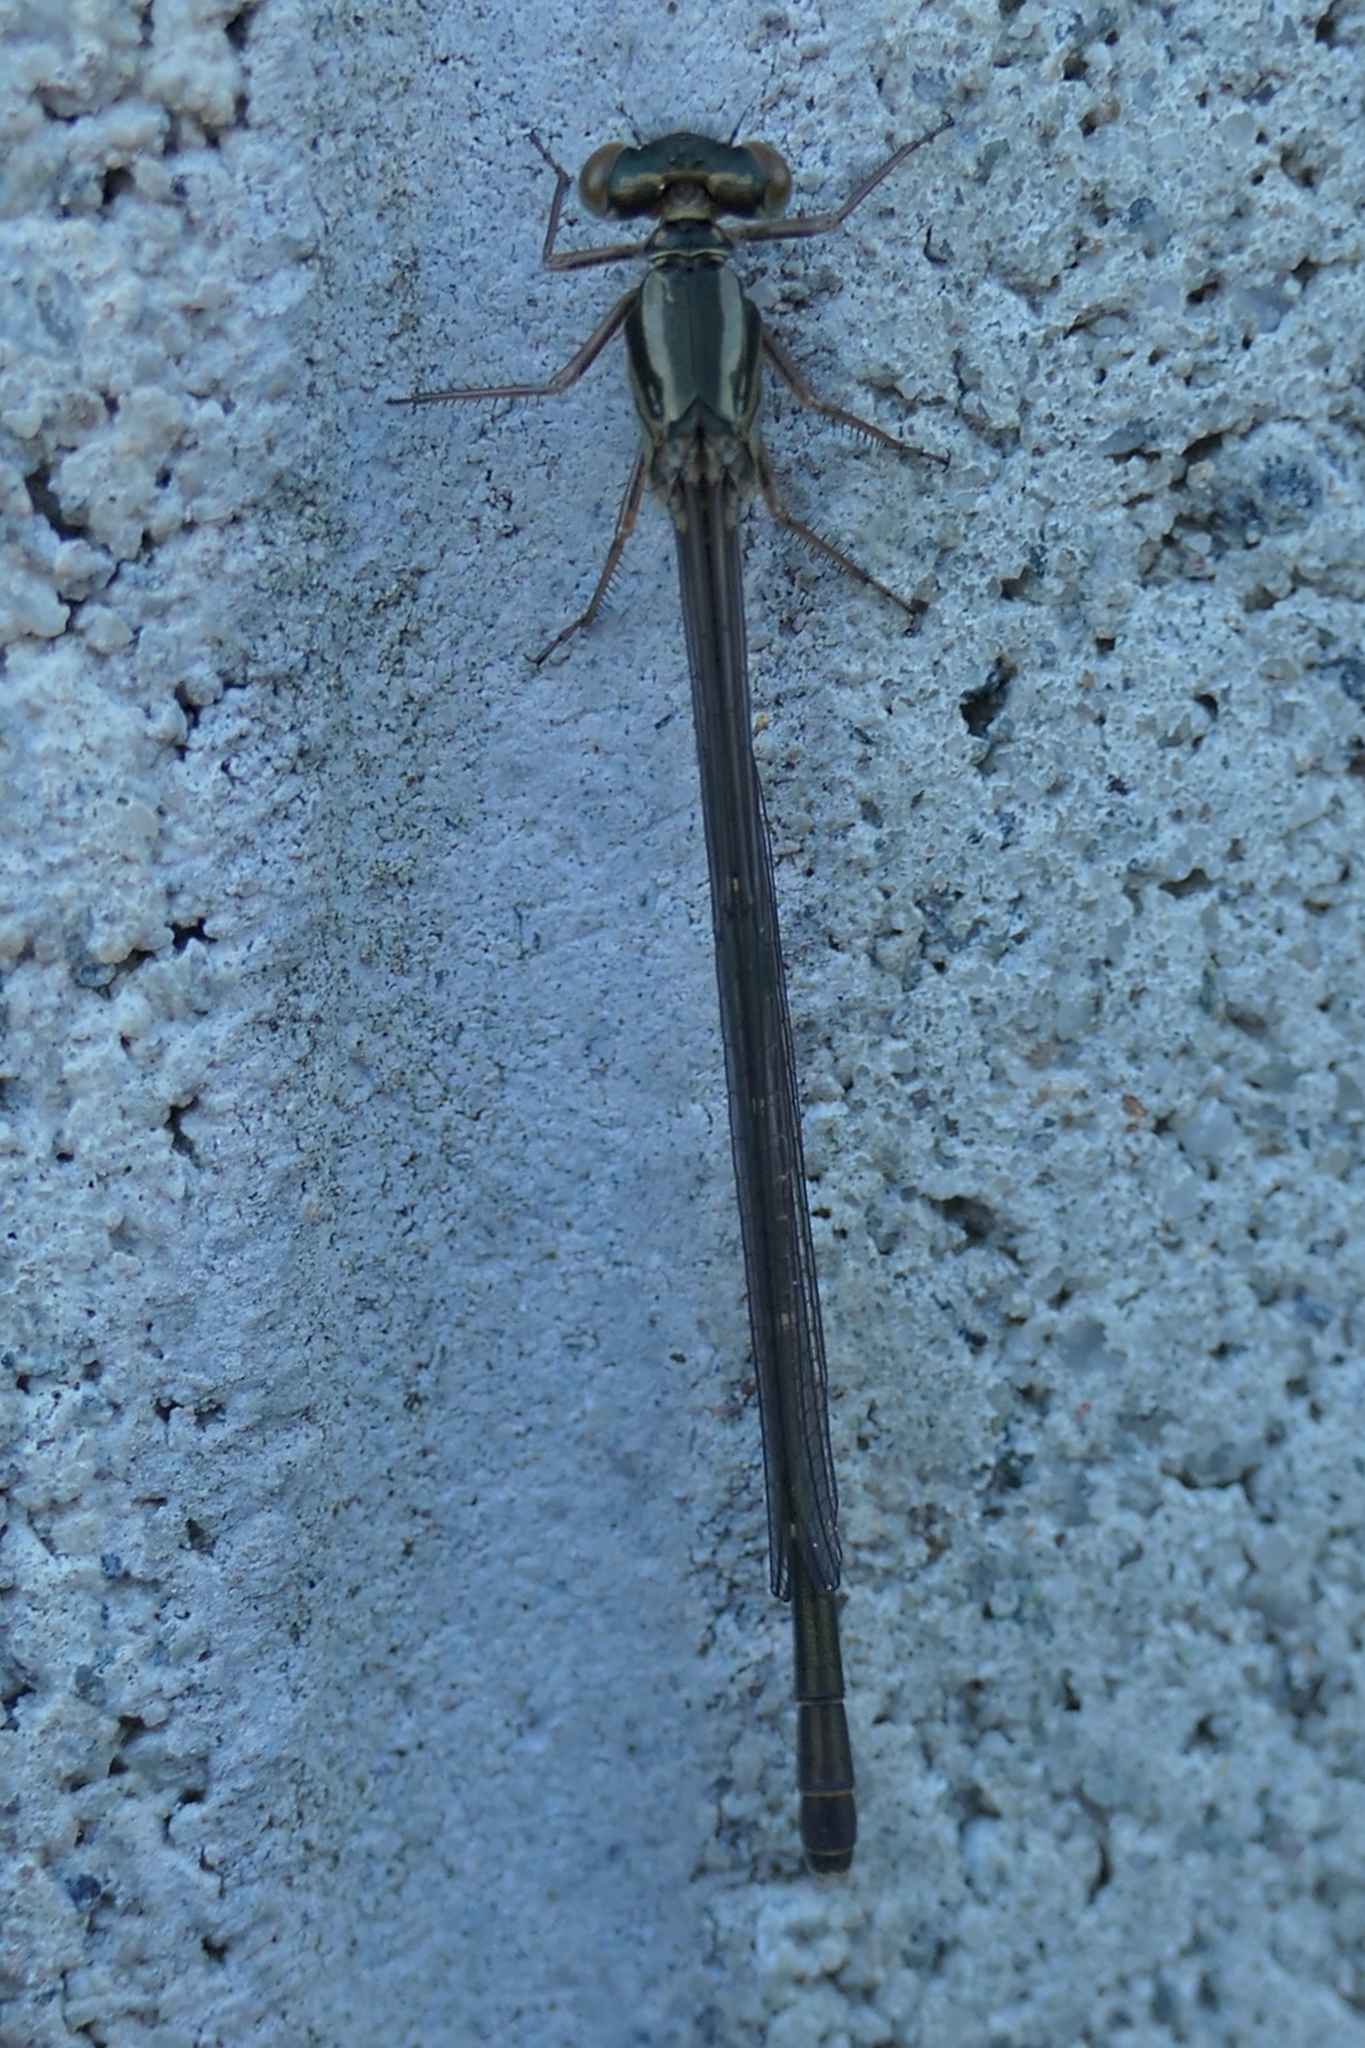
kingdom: Animalia
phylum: Arthropoda
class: Insecta
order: Odonata
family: Coenagrionidae
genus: Xanthocnemis
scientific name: Xanthocnemis zealandica
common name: Common redcoat damselfly
